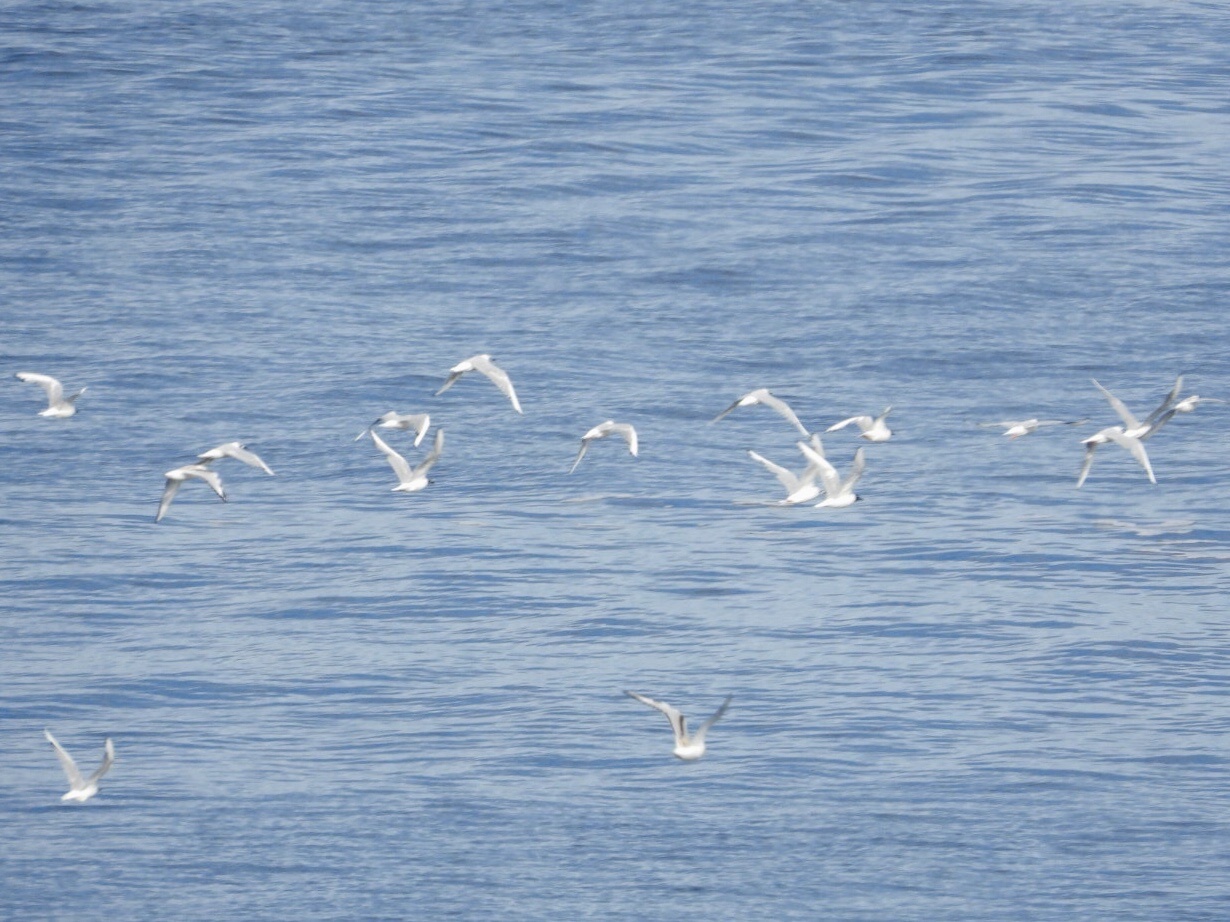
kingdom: Animalia
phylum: Chordata
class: Aves
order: Charadriiformes
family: Laridae
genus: Chroicocephalus
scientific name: Chroicocephalus philadelphia
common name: Bonaparte's gull
